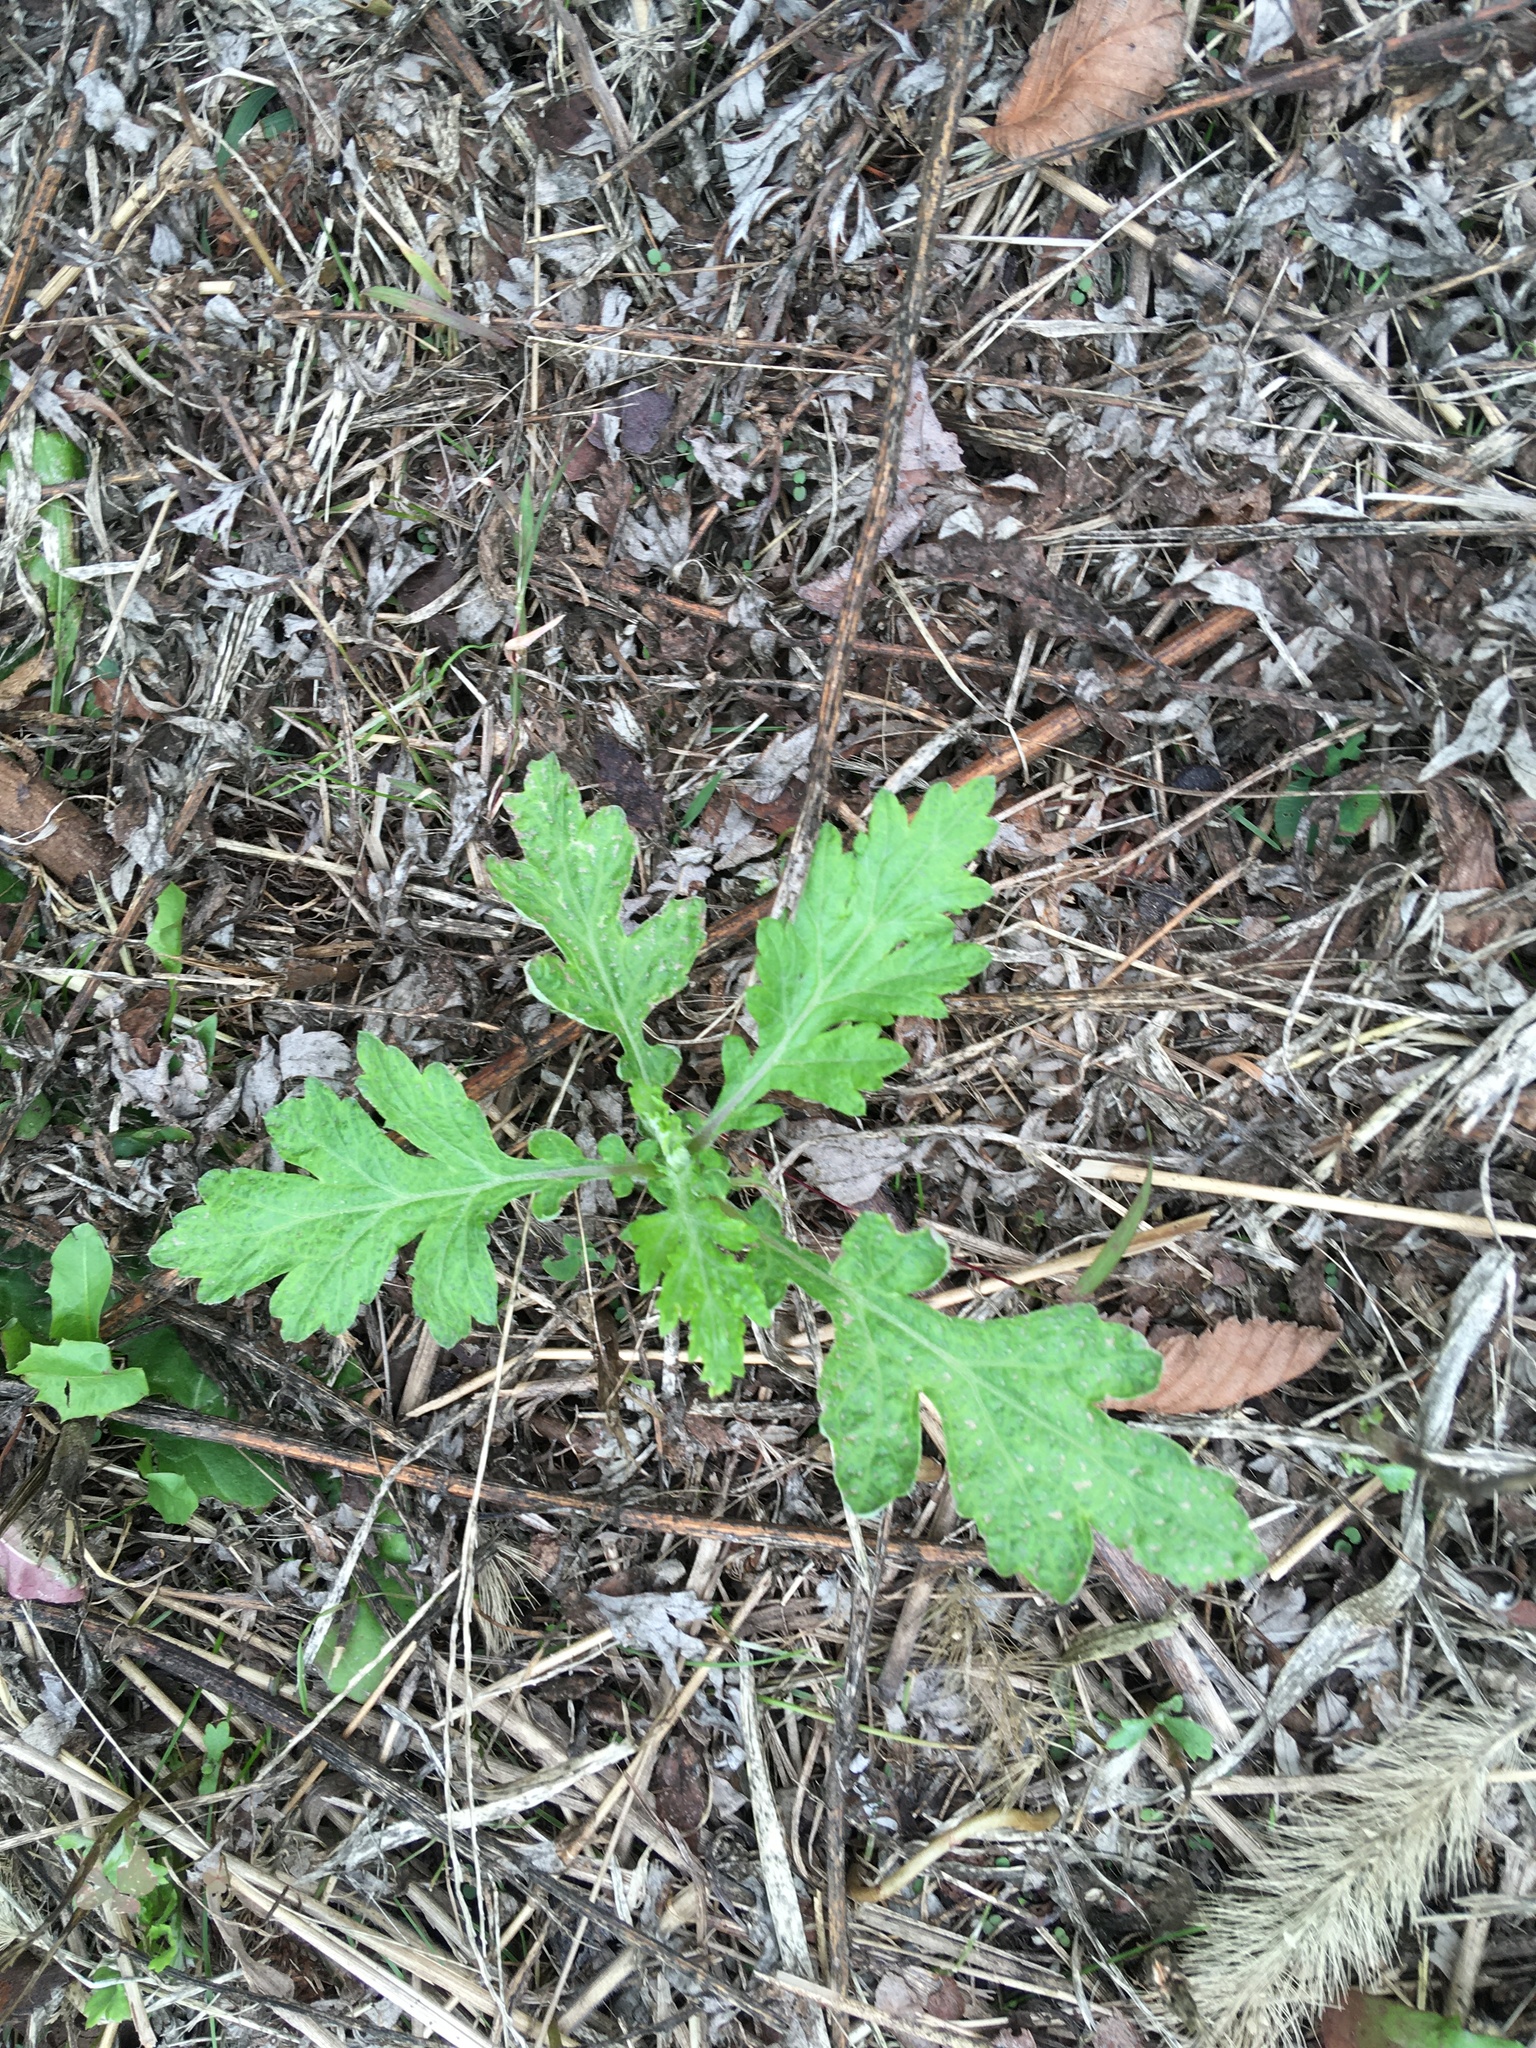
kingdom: Plantae
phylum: Tracheophyta
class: Magnoliopsida
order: Asterales
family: Asteraceae
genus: Artemisia
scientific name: Artemisia vulgaris
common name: Mugwort
